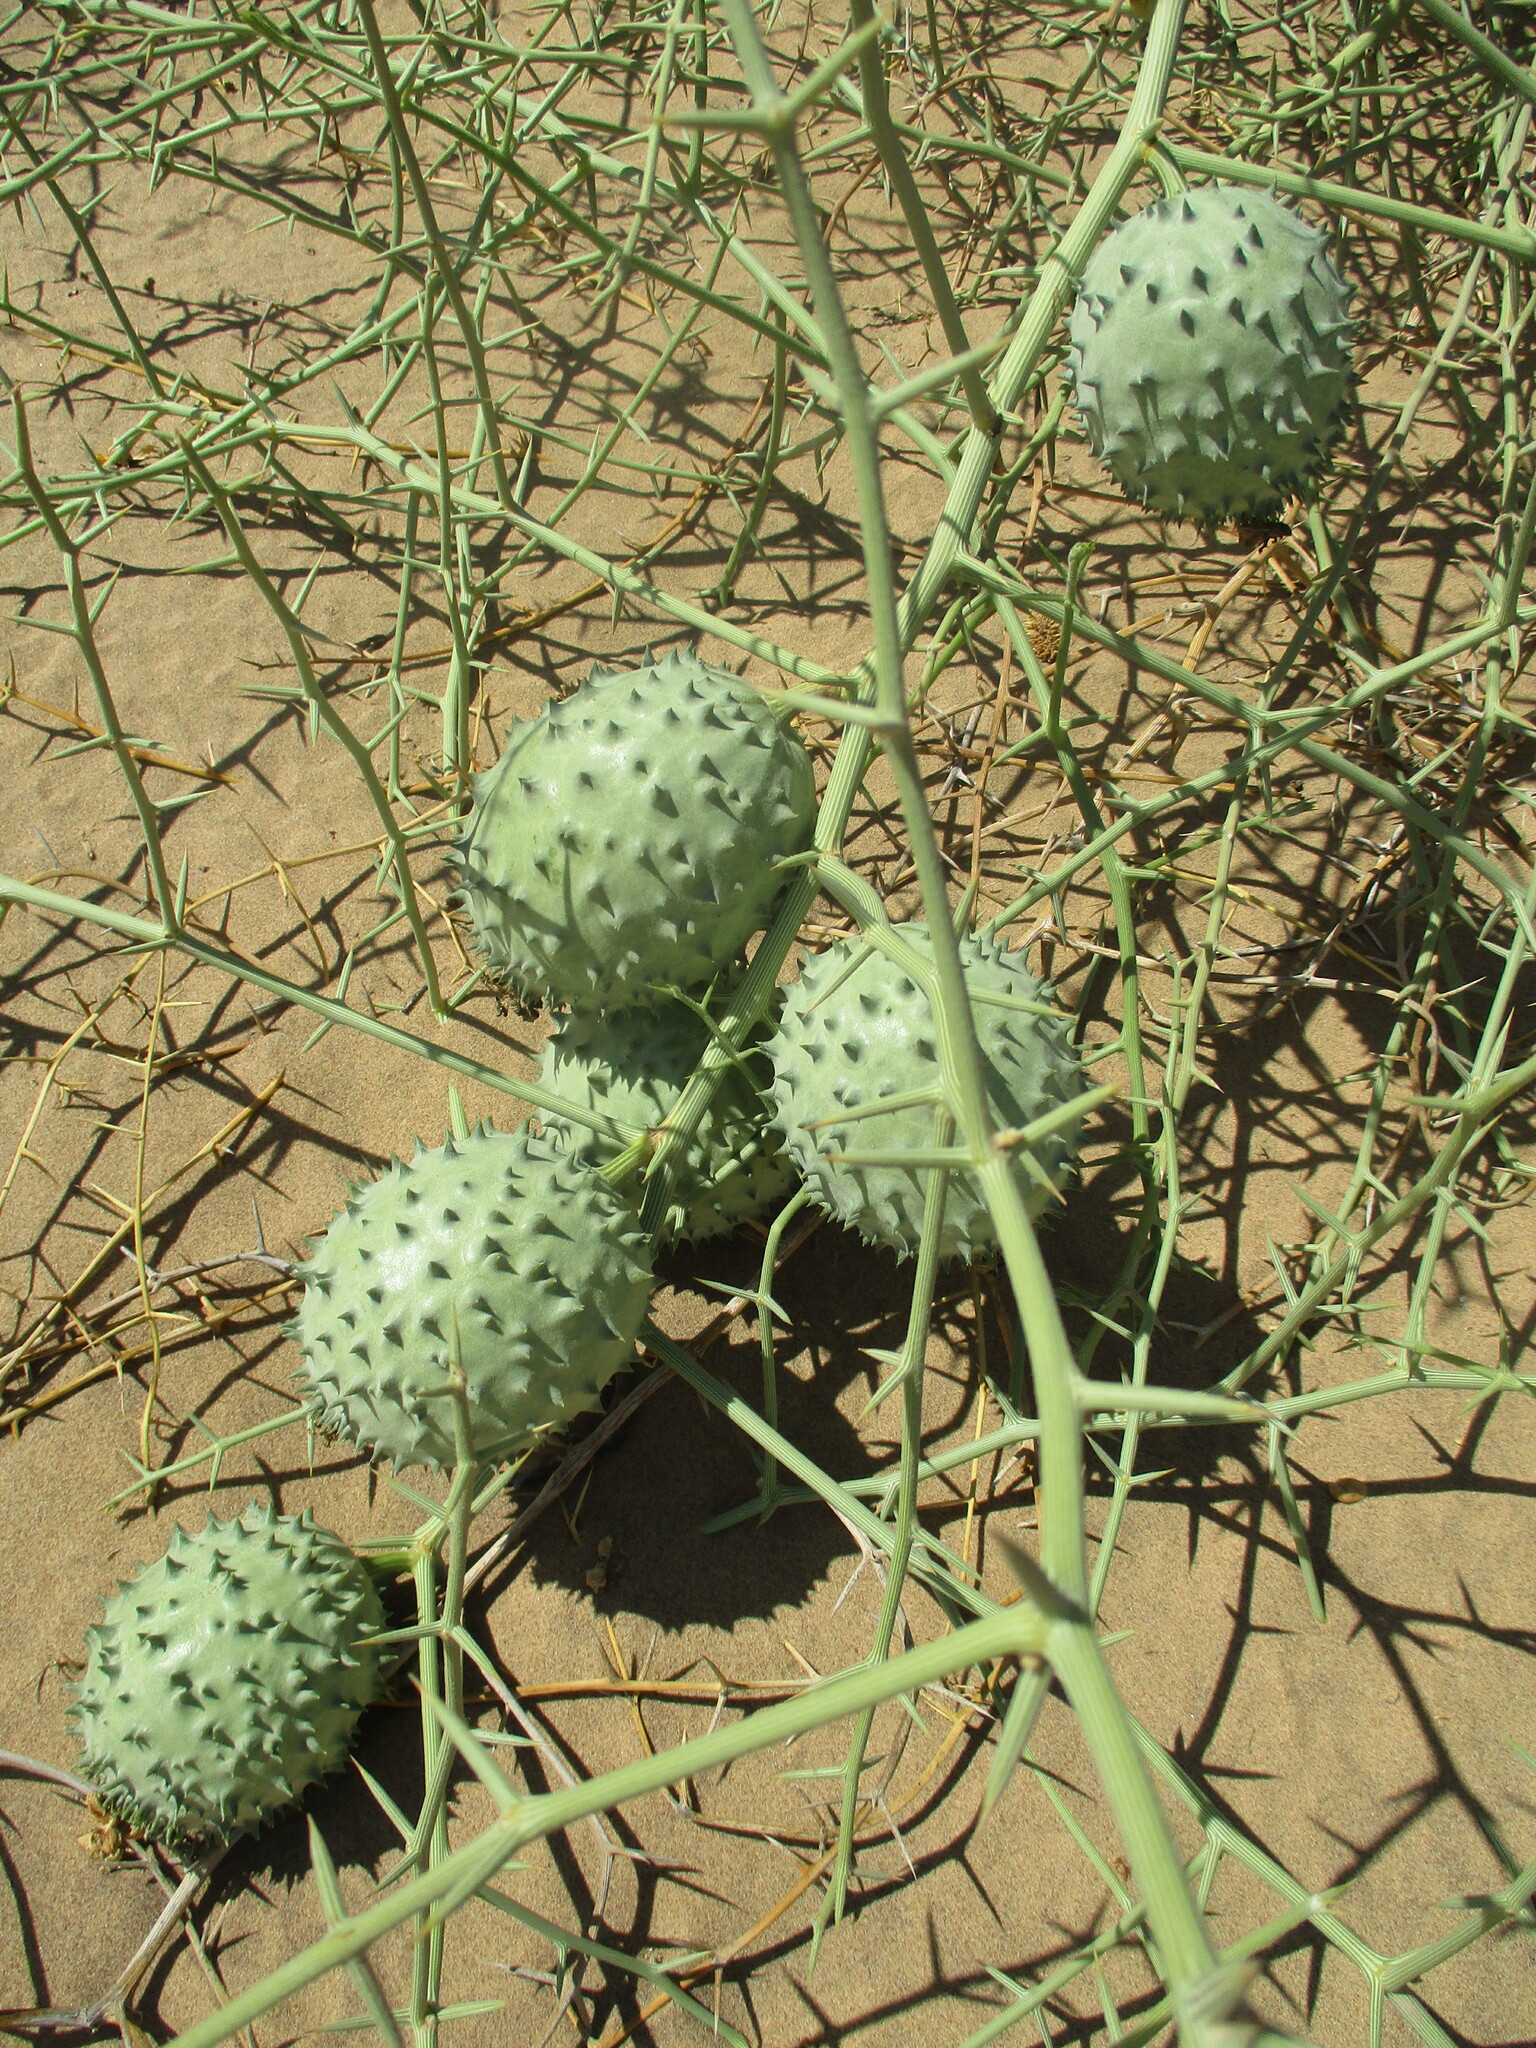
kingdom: Plantae
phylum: Tracheophyta
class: Magnoliopsida
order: Cucurbitales
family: Cucurbitaceae
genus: Acanthosicyos
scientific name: Acanthosicyos horridus
